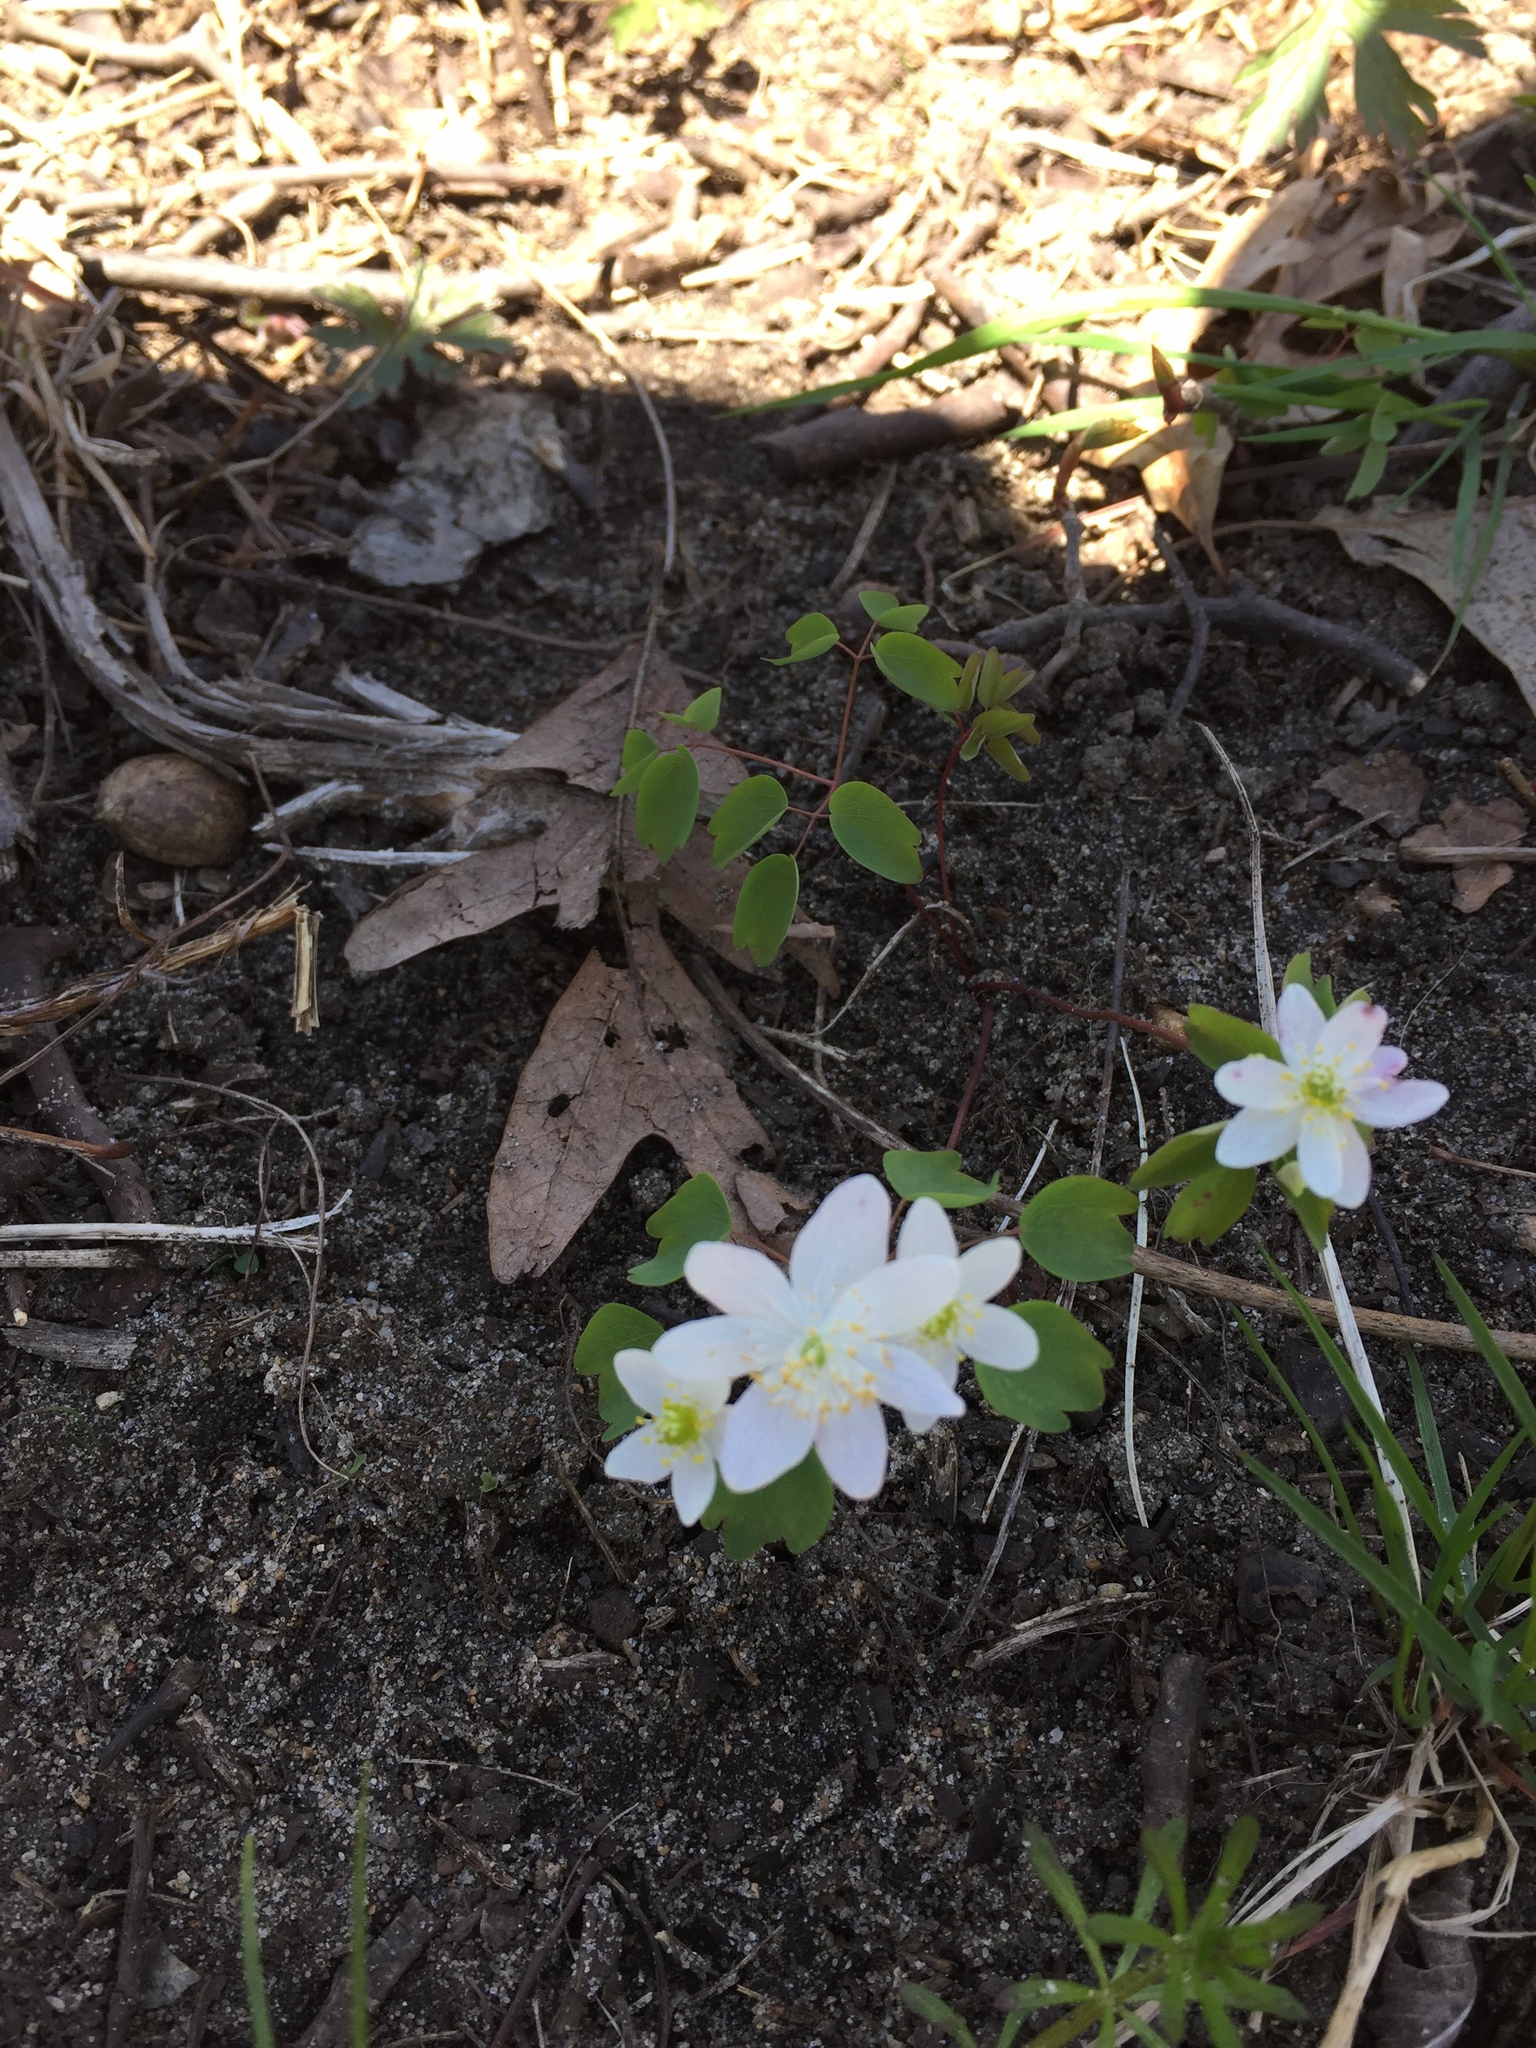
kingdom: Plantae
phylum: Tracheophyta
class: Magnoliopsida
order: Ranunculales
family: Ranunculaceae
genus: Thalictrum
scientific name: Thalictrum thalictroides
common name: Rue-anemone
